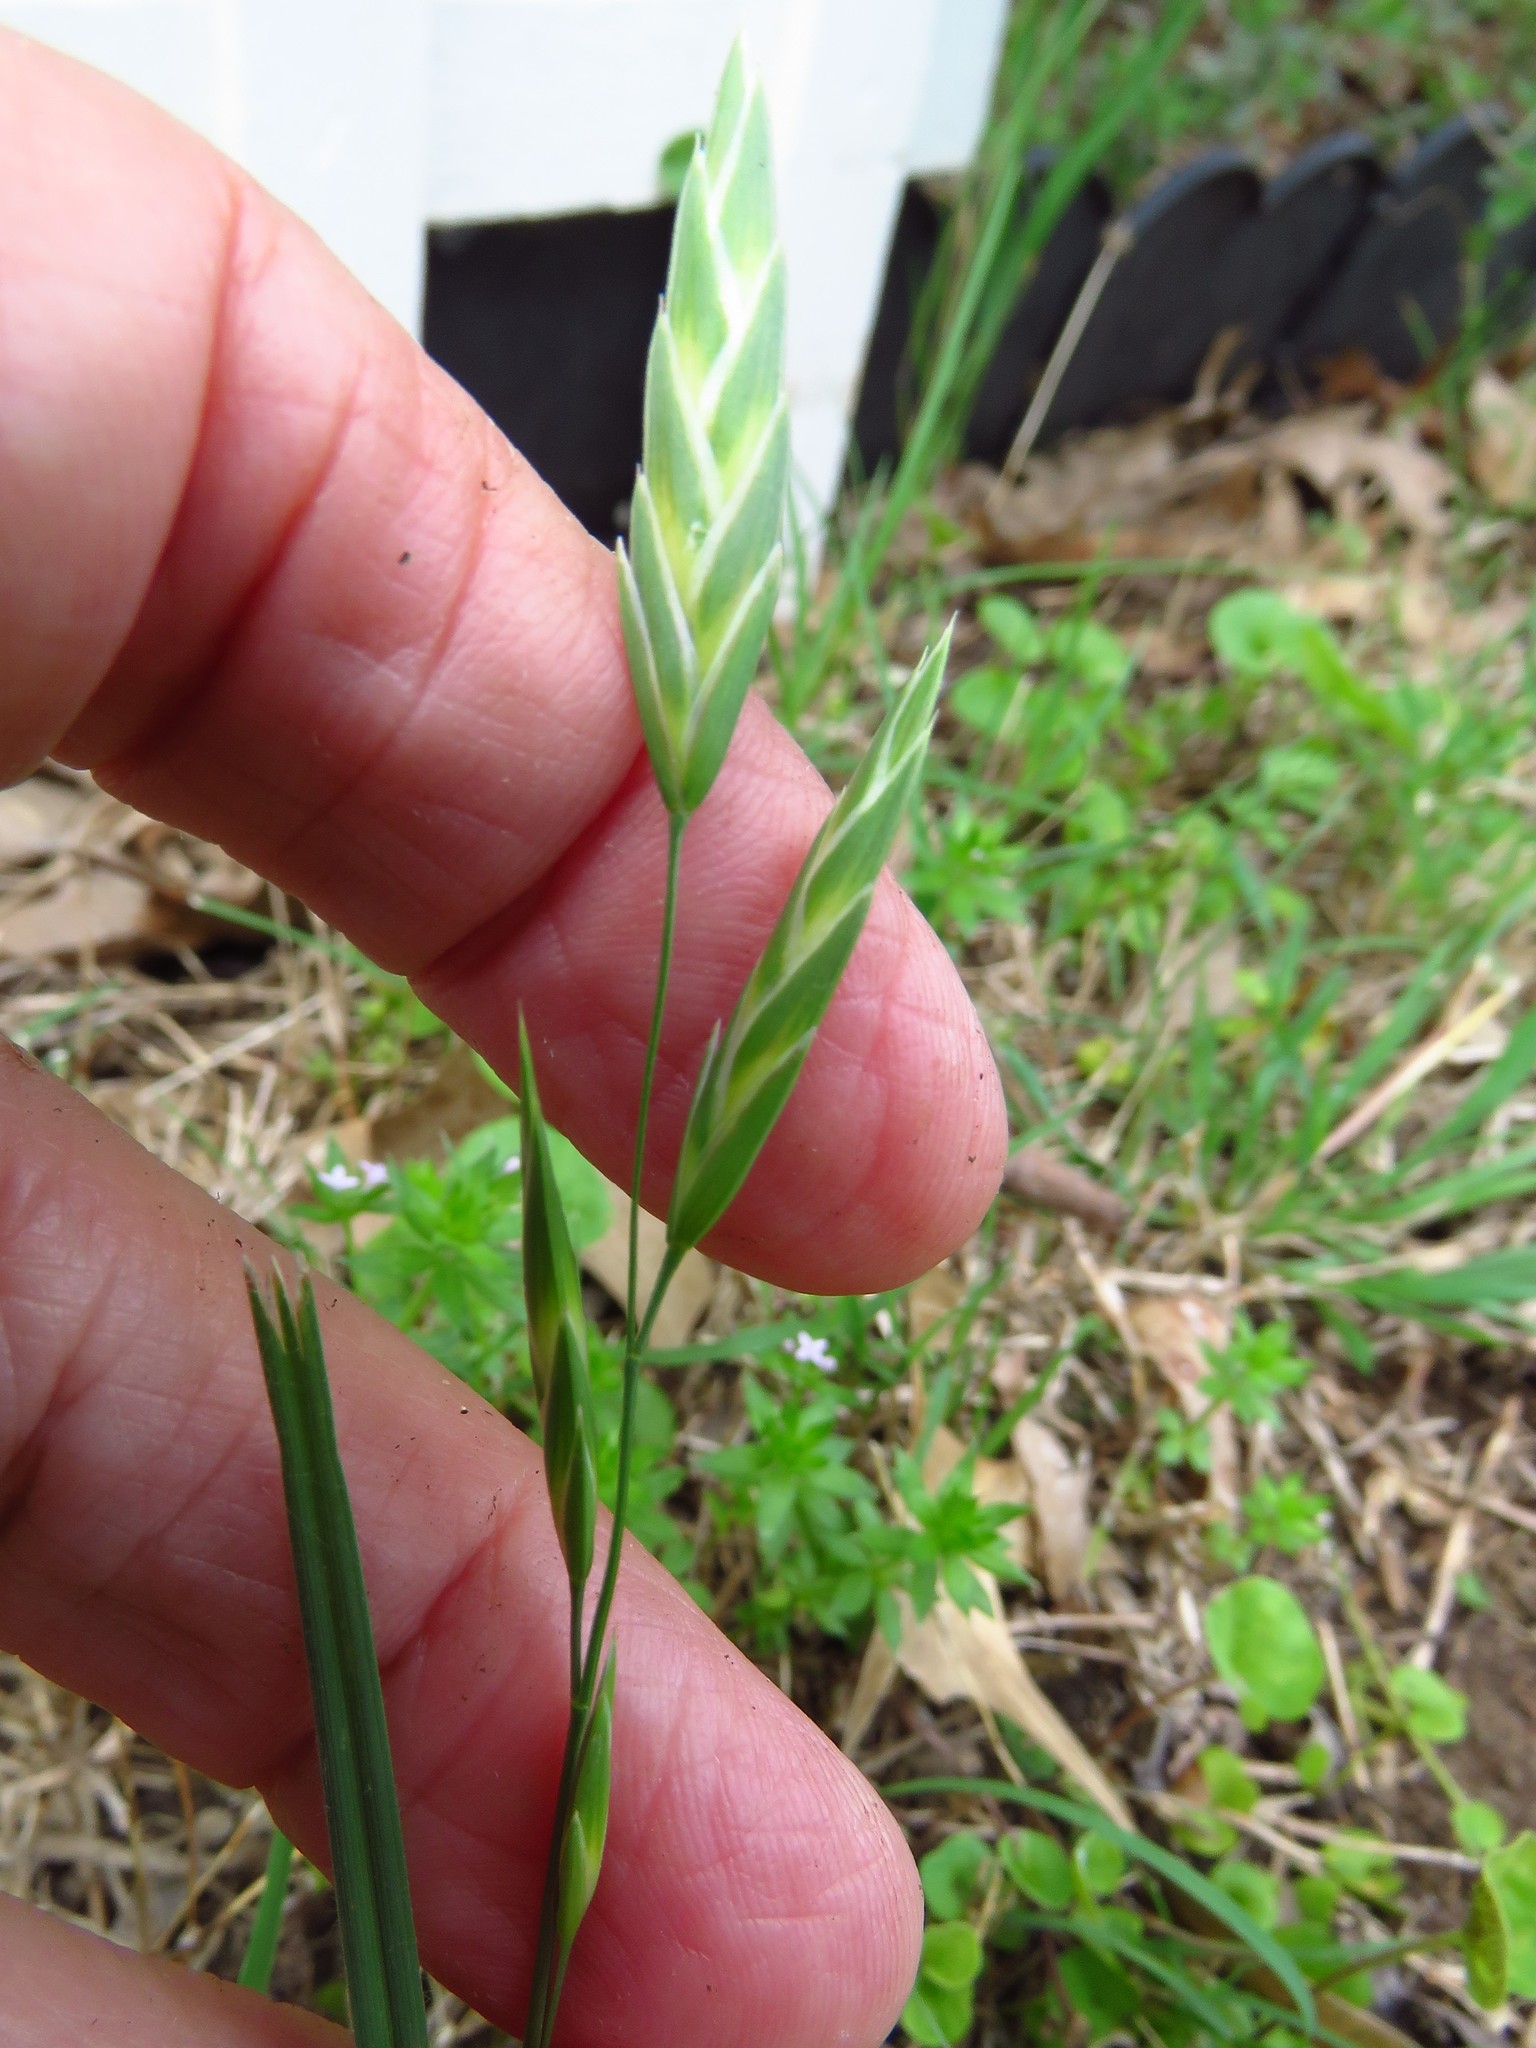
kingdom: Plantae
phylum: Tracheophyta
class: Liliopsida
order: Poales
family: Poaceae
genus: Bromus
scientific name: Bromus catharticus
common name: Rescuegrass
